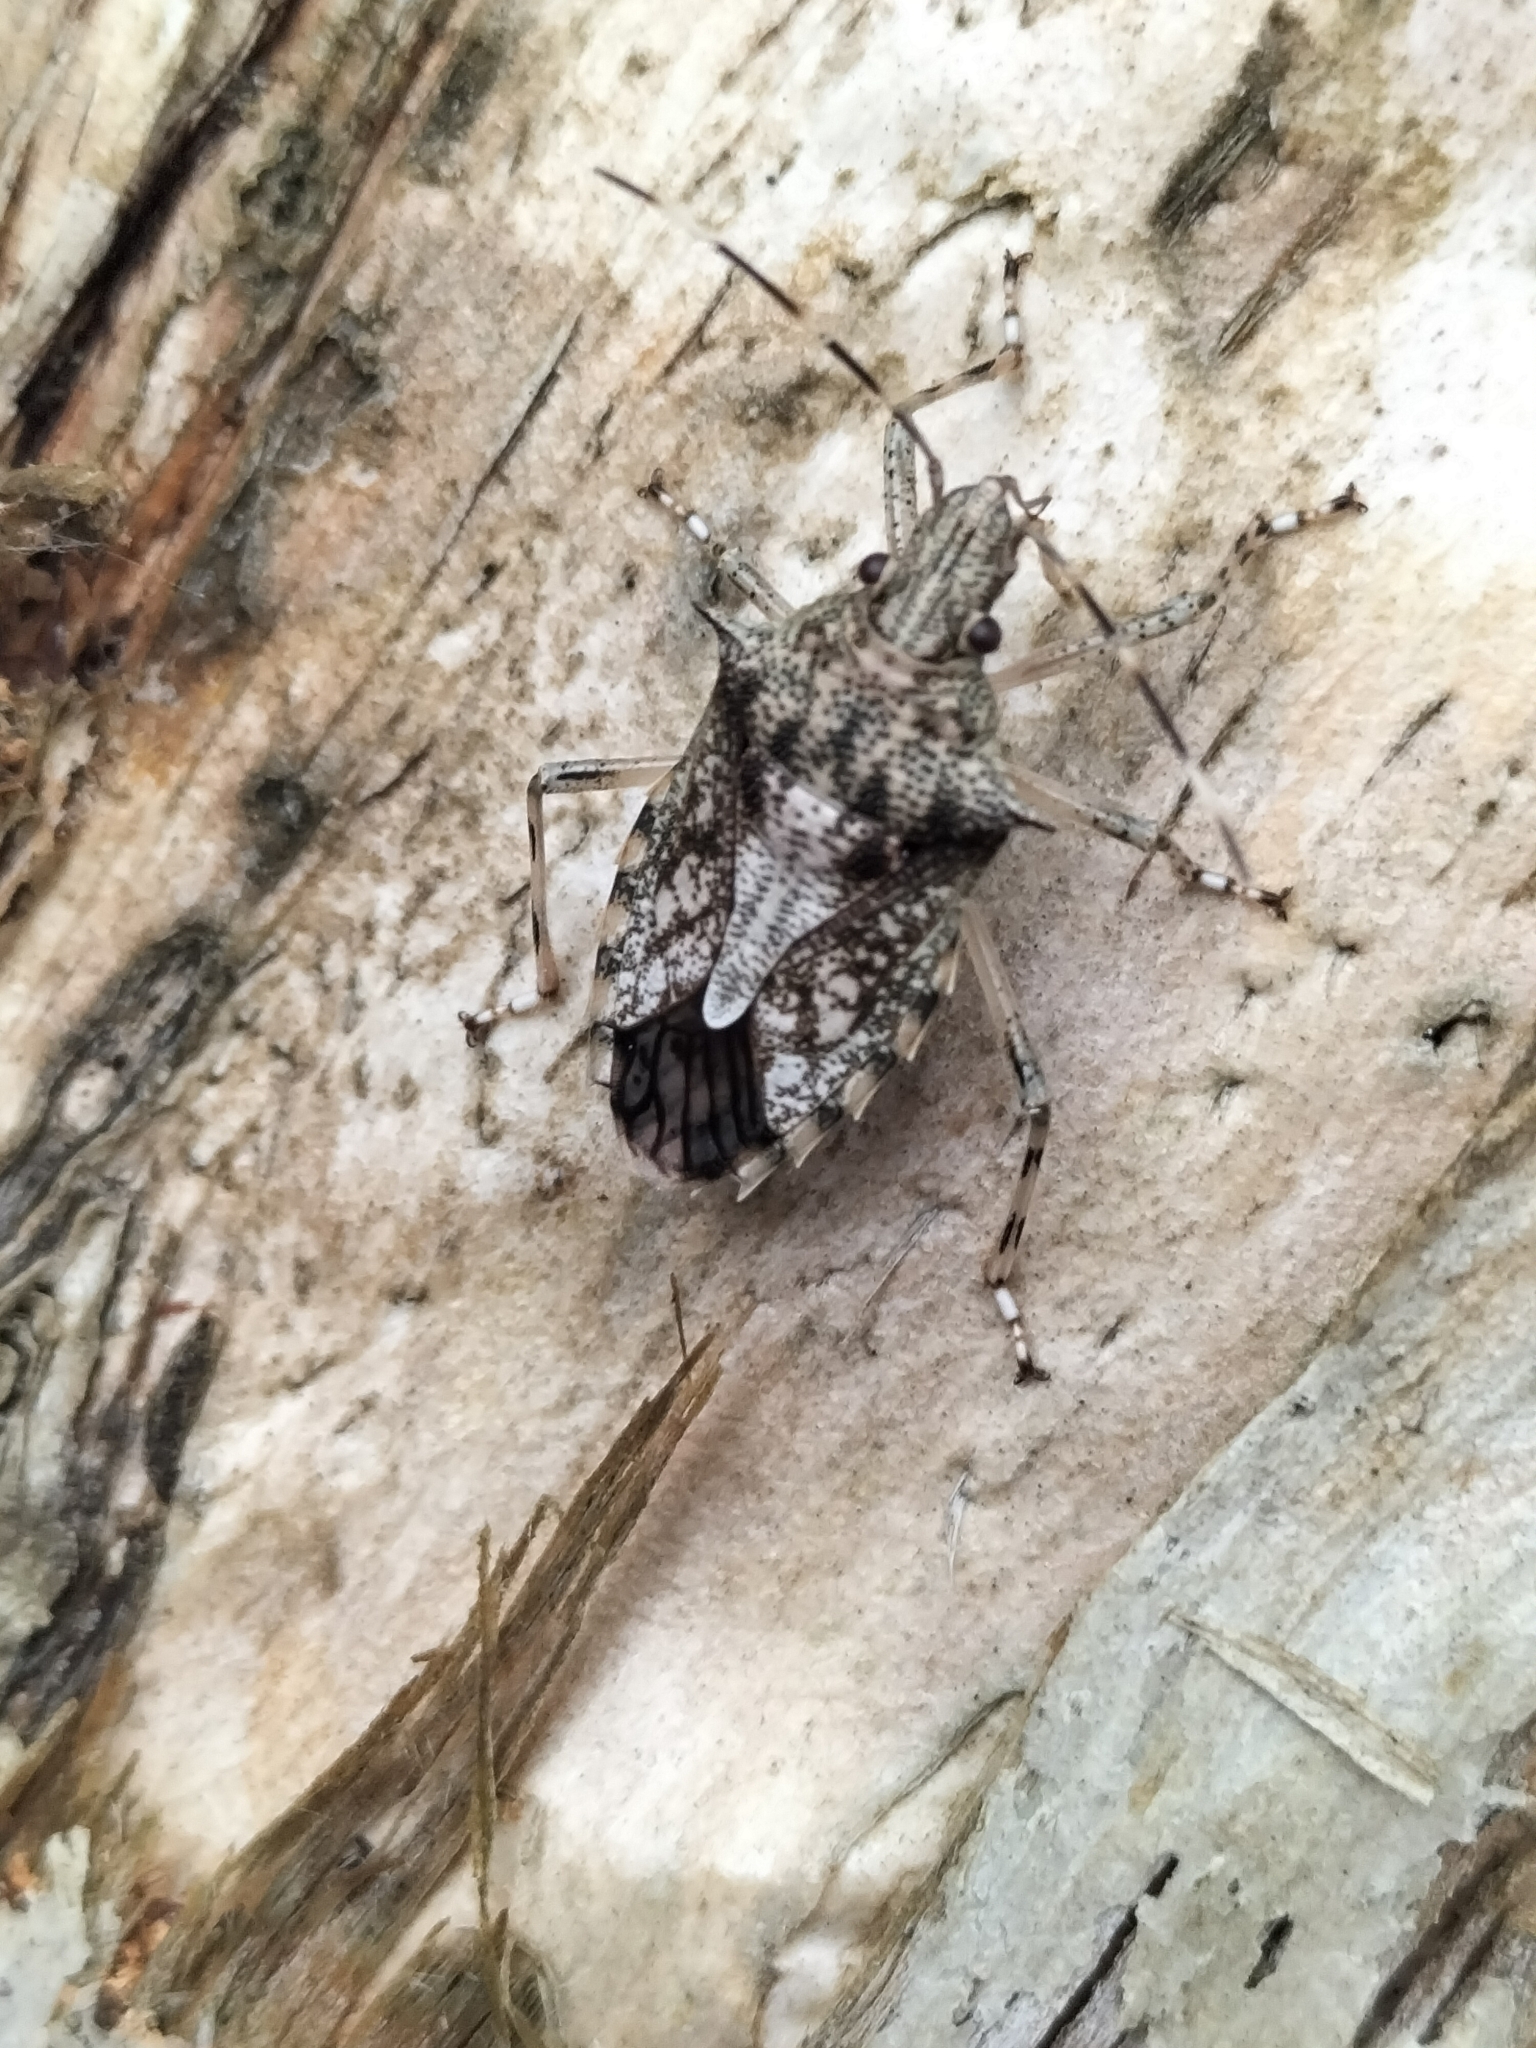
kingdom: Animalia
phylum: Arthropoda
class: Insecta
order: Hemiptera
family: Pentatomidae
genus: Bromocoris
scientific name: Bromocoris
